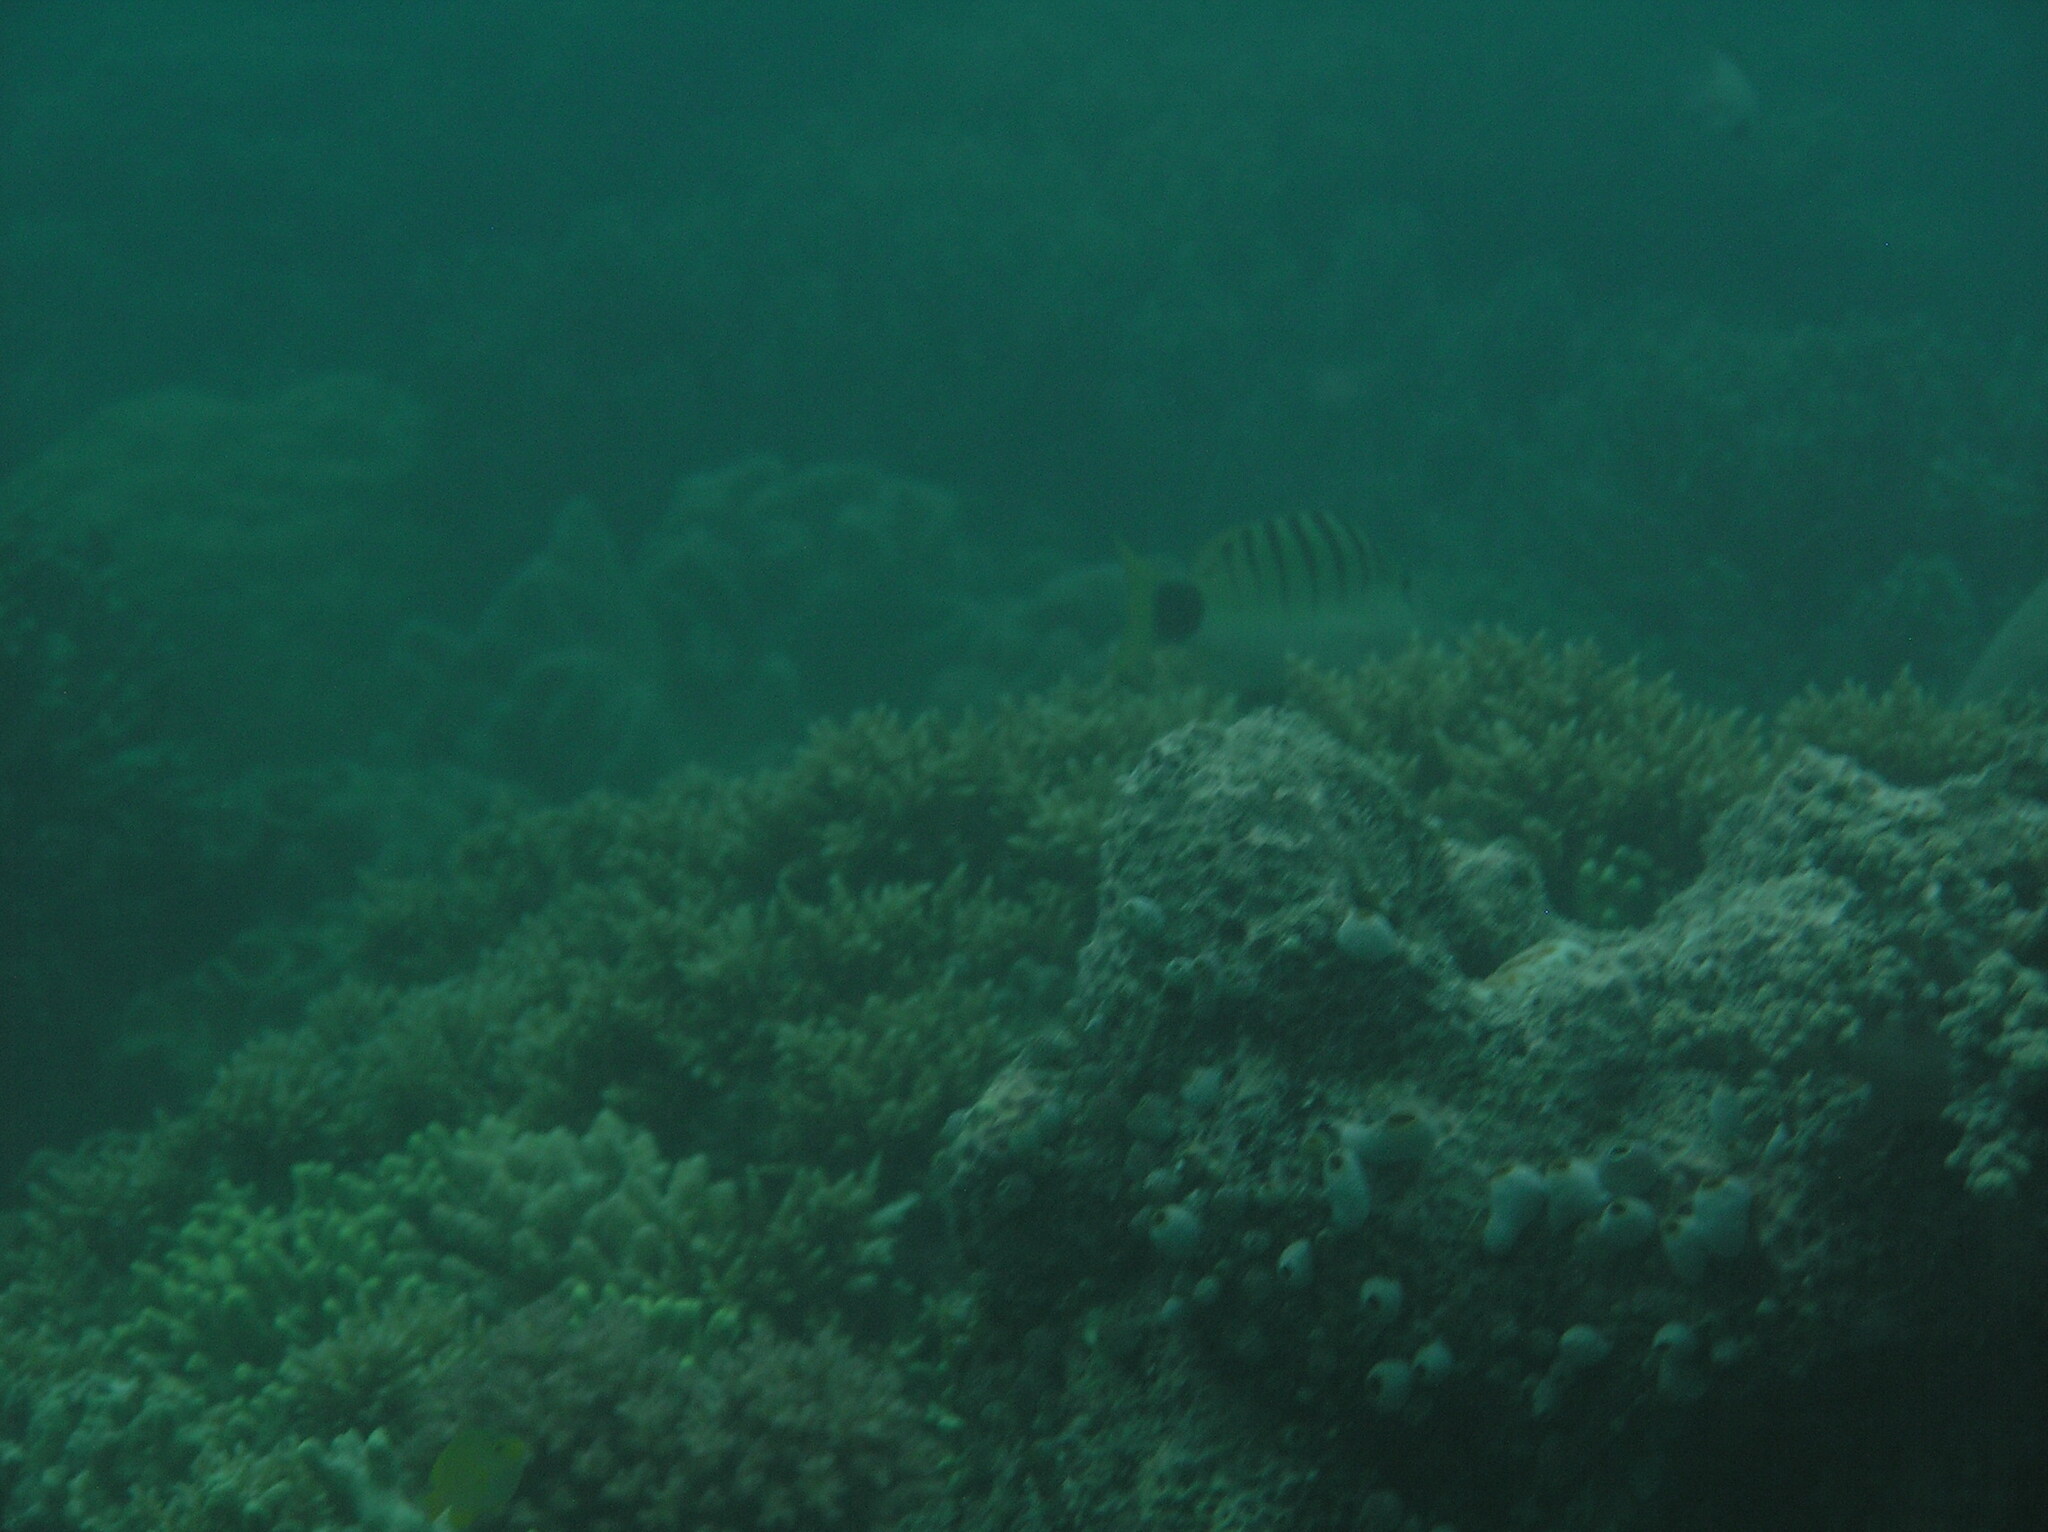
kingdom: Animalia
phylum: Chordata
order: Perciformes
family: Lutjanidae
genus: Lutjanus
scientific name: Lutjanus semicinctus
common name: Half-barred snapper
